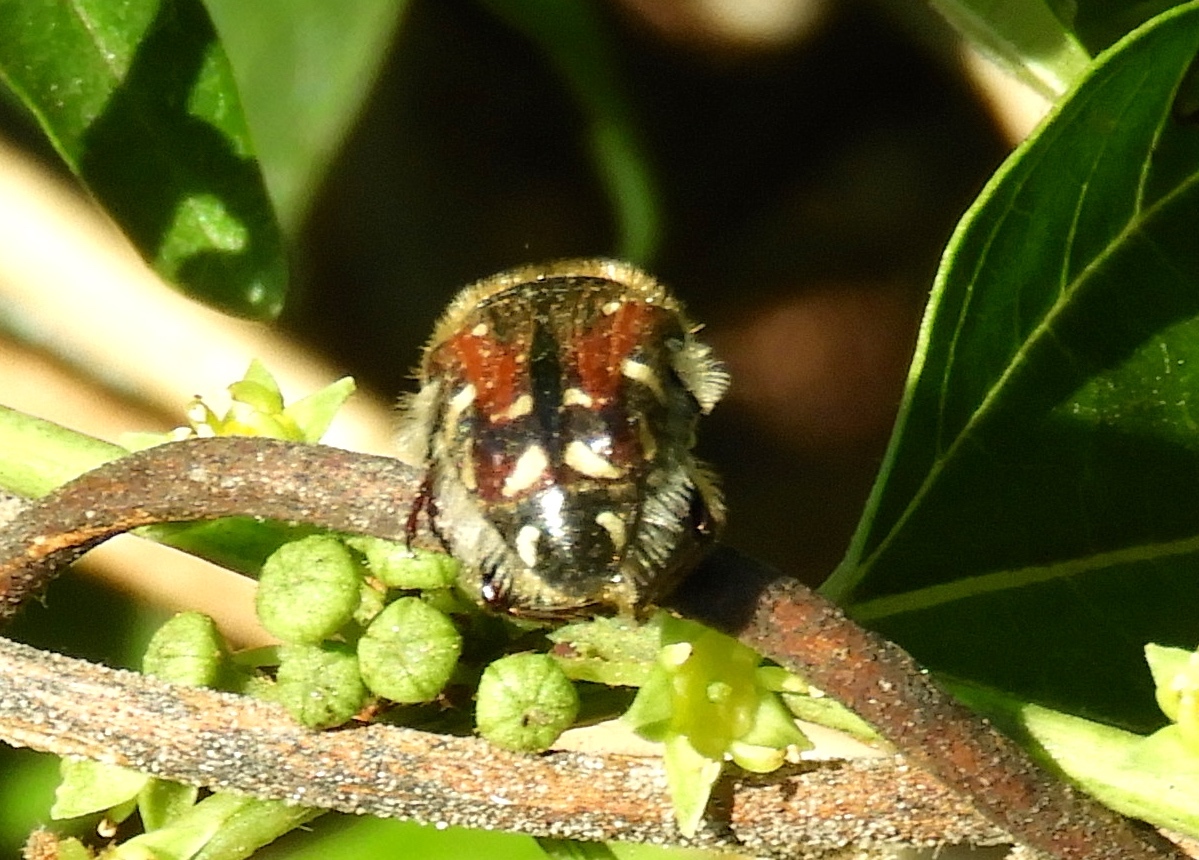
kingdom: Animalia
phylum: Arthropoda
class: Insecta
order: Coleoptera
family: Scarabaeidae
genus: Euphoria
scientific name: Euphoria pulchella
